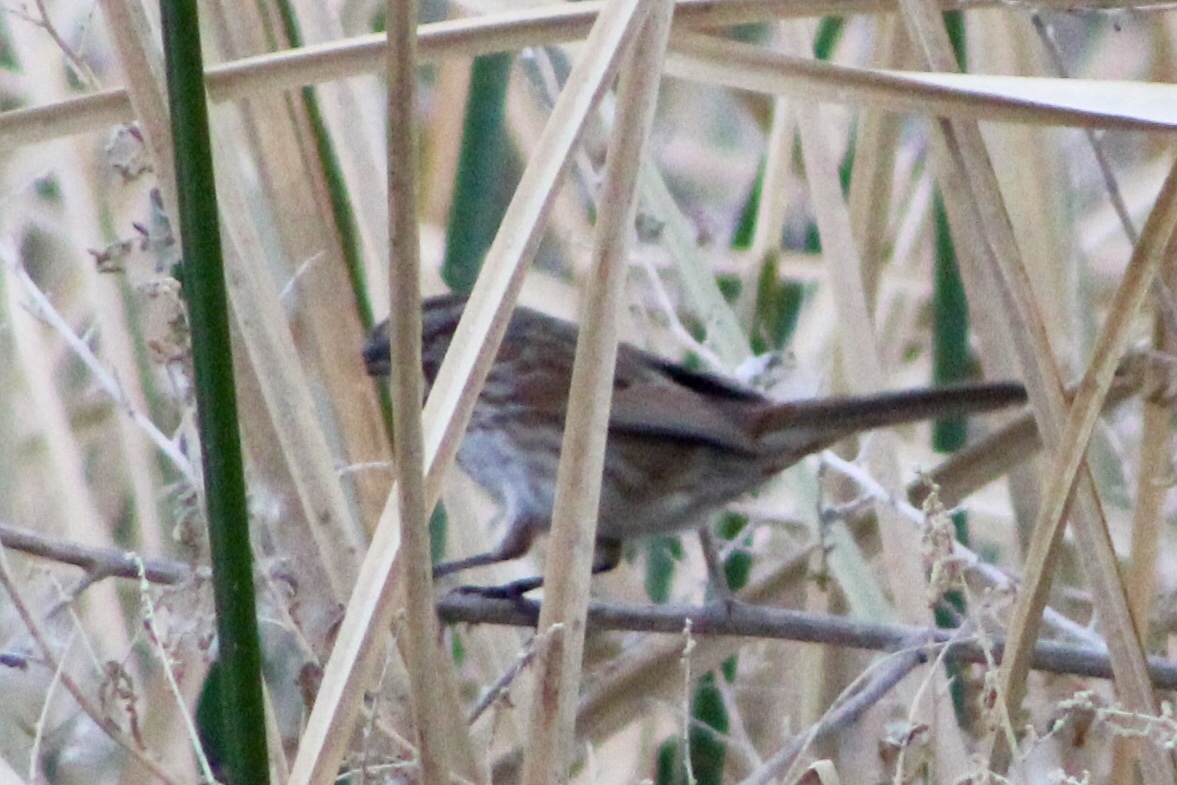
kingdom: Animalia
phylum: Chordata
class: Aves
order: Passeriformes
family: Passerellidae
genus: Melospiza
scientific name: Melospiza melodia
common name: Song sparrow
